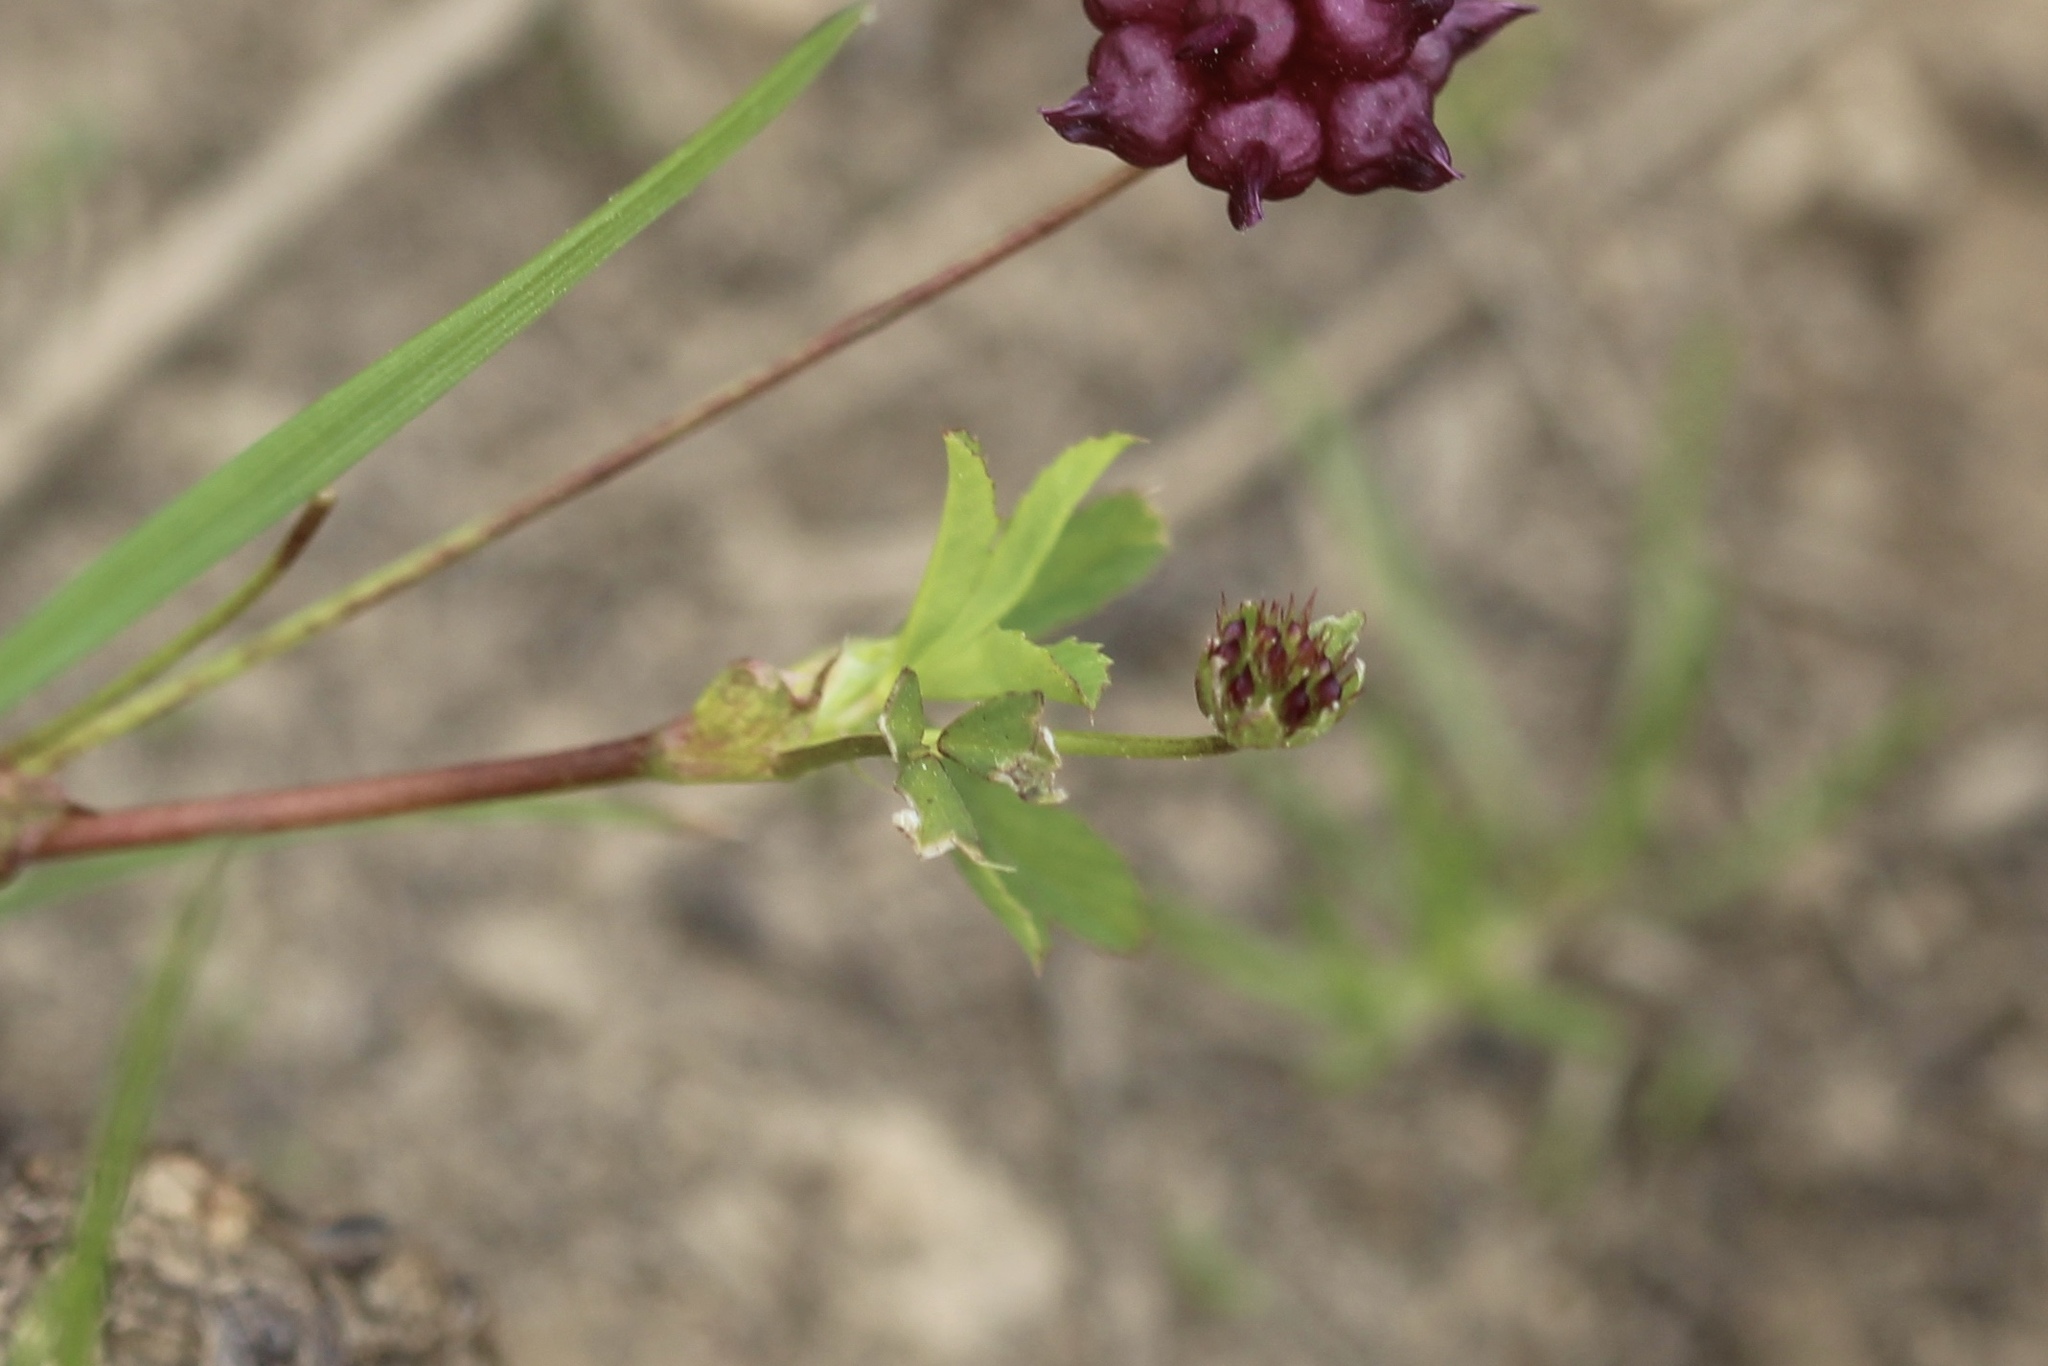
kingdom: Plantae
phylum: Tracheophyta
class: Magnoliopsida
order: Fabales
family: Fabaceae
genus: Trifolium
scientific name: Trifolium depauperatum
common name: Poverty clover
